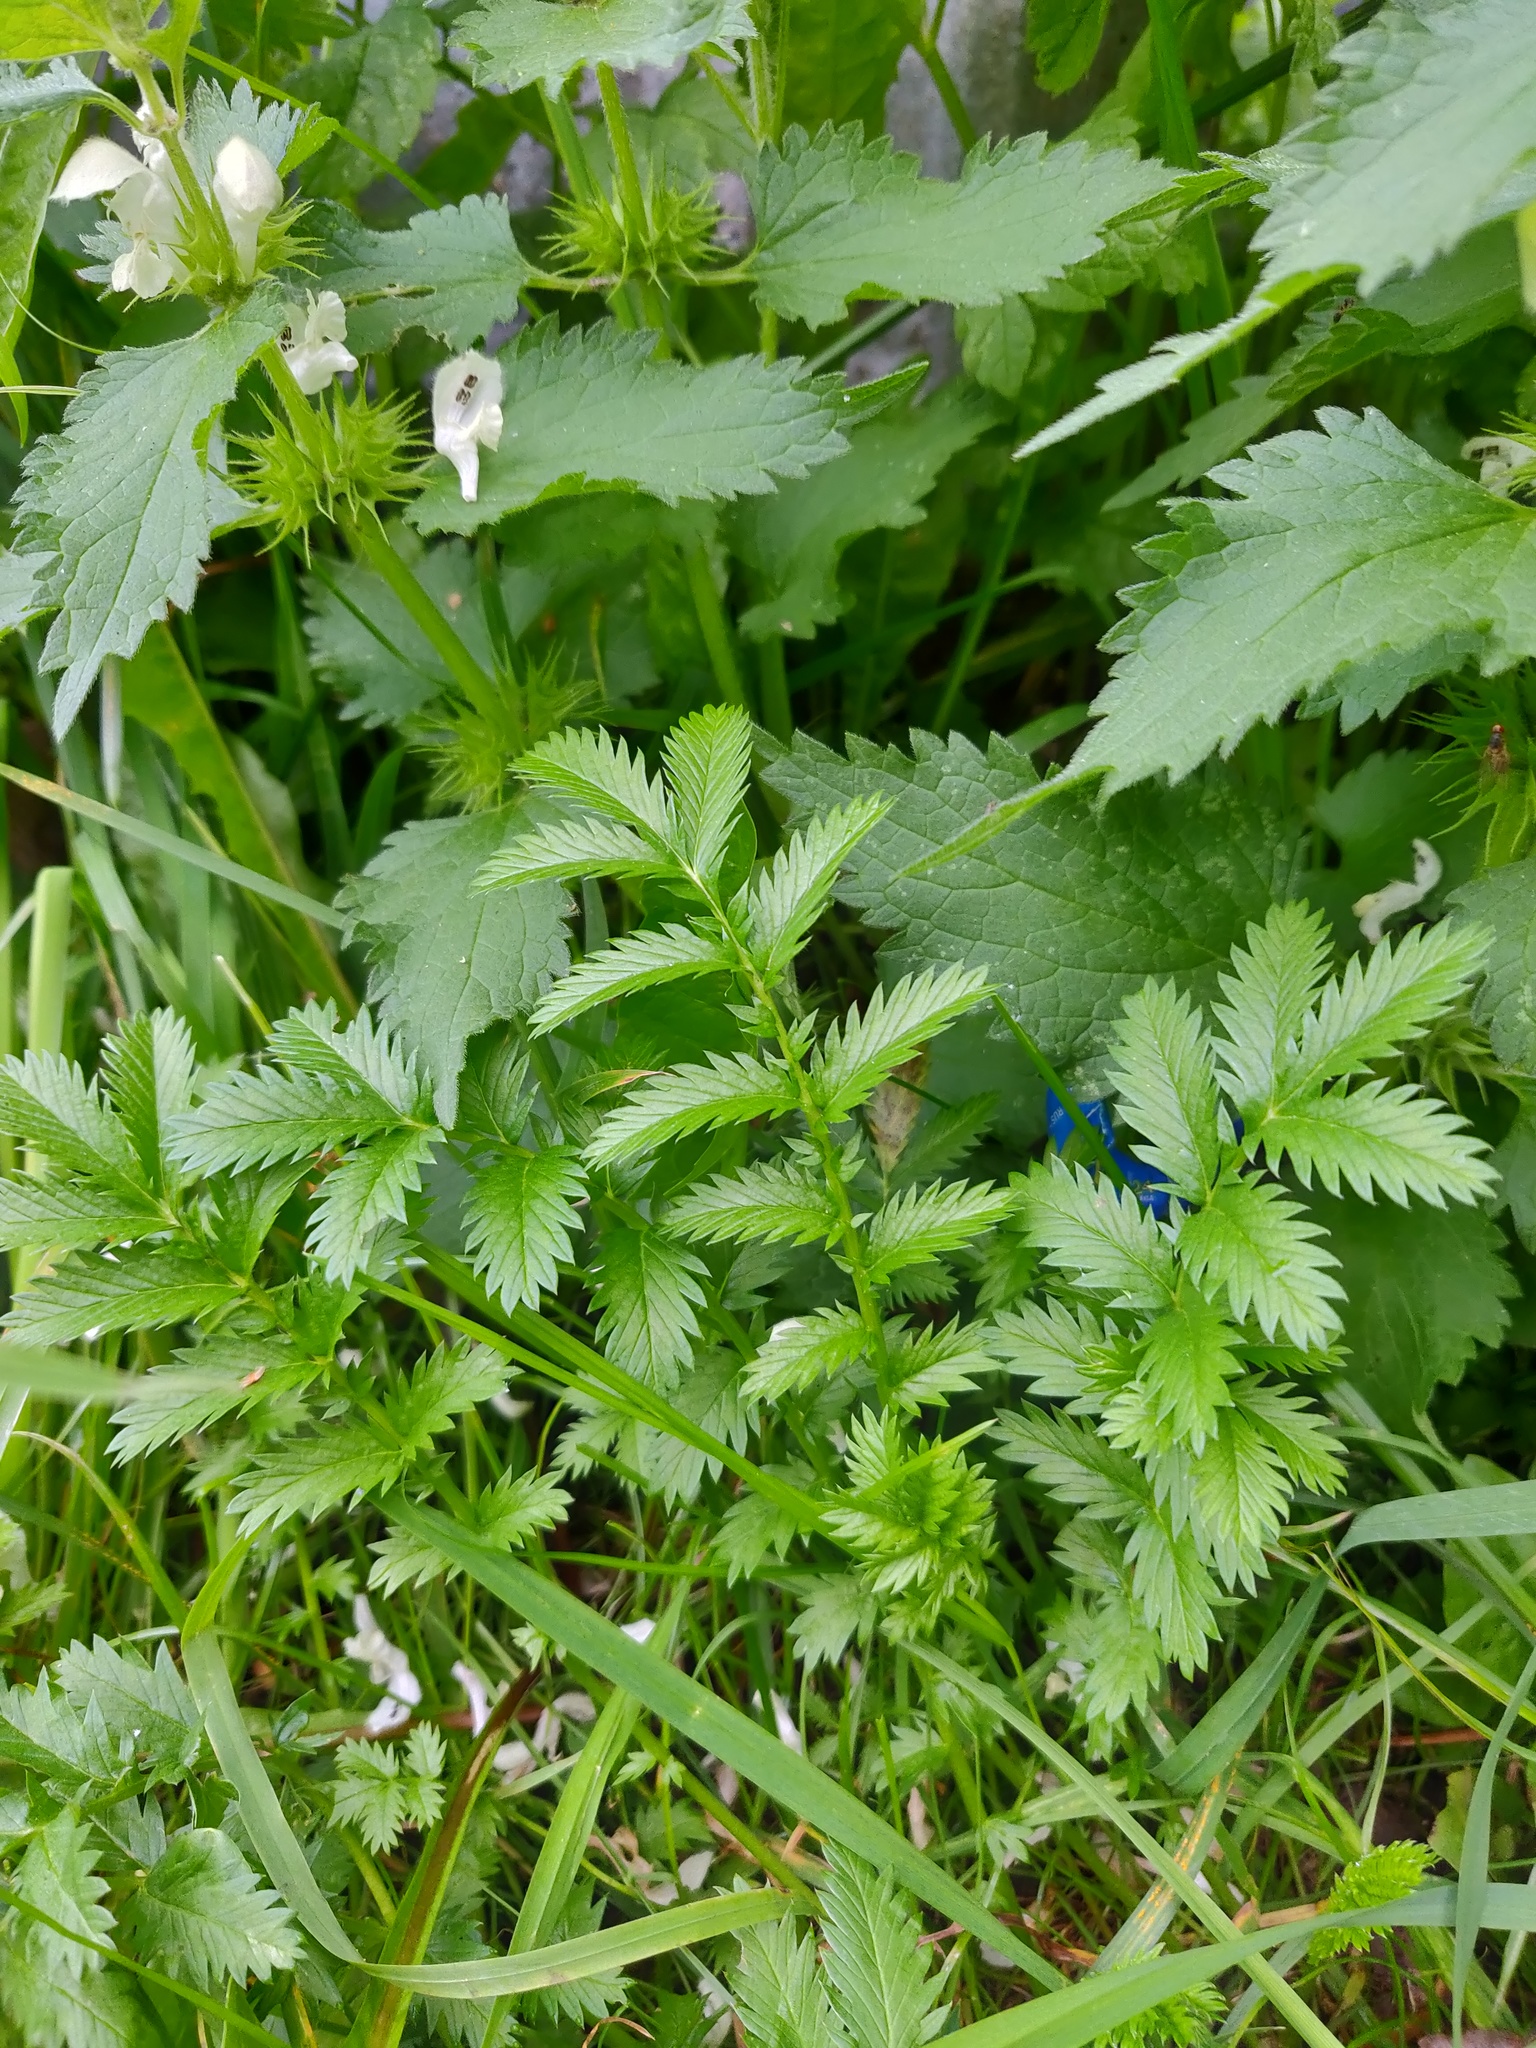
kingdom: Plantae
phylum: Tracheophyta
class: Magnoliopsida
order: Rosales
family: Rosaceae
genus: Argentina
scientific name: Argentina anserina
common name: Common silverweed
